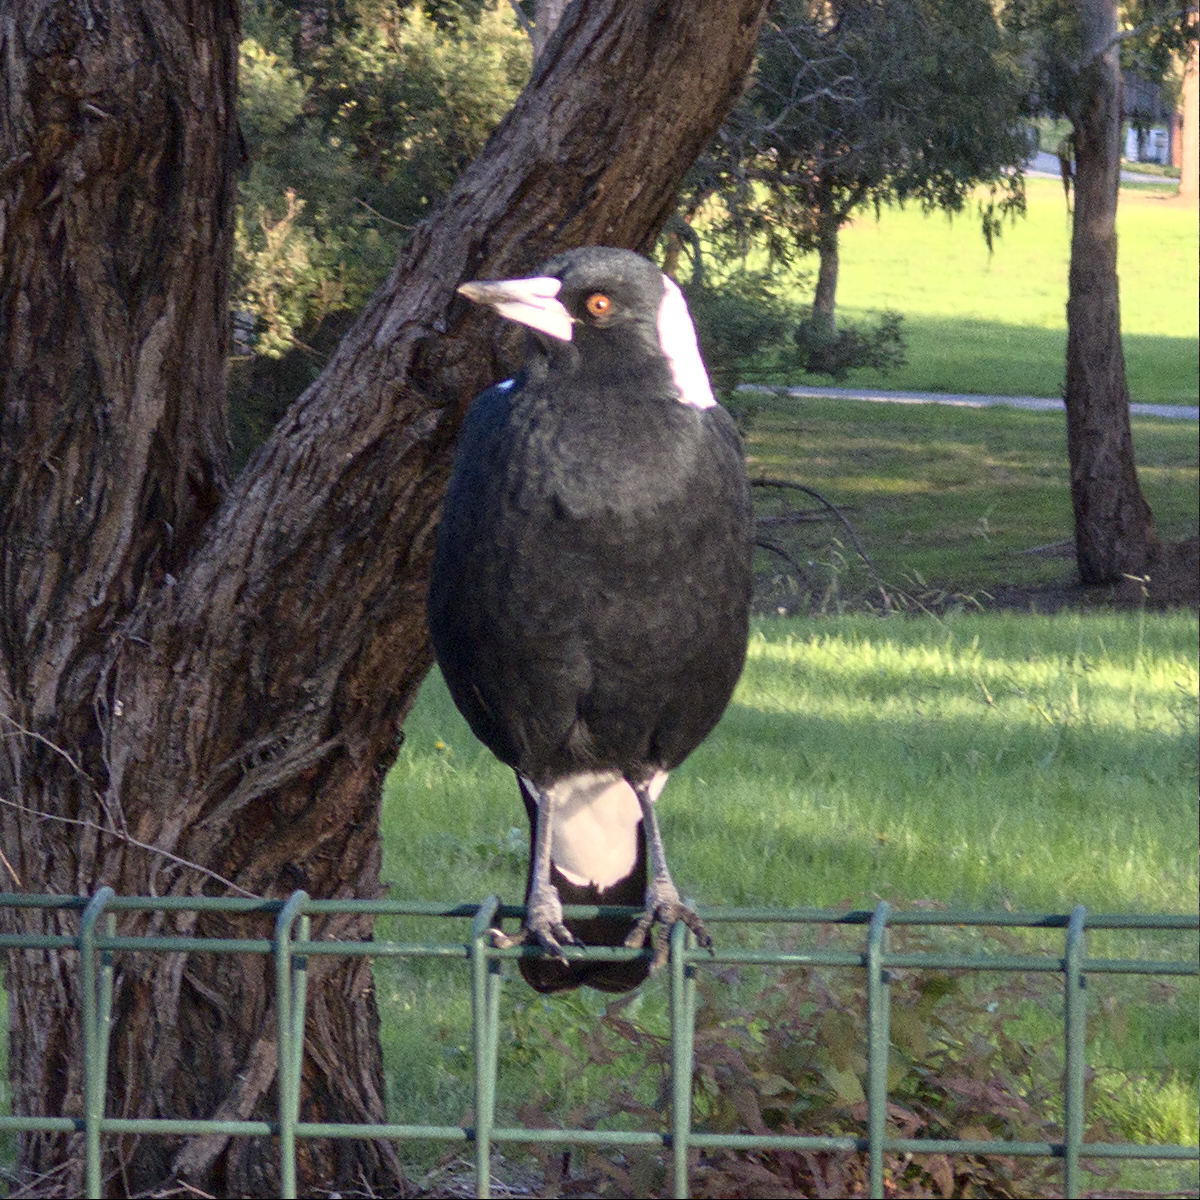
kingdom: Animalia
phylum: Chordata
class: Aves
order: Passeriformes
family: Cracticidae
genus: Gymnorhina
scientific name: Gymnorhina tibicen
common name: Australian magpie
